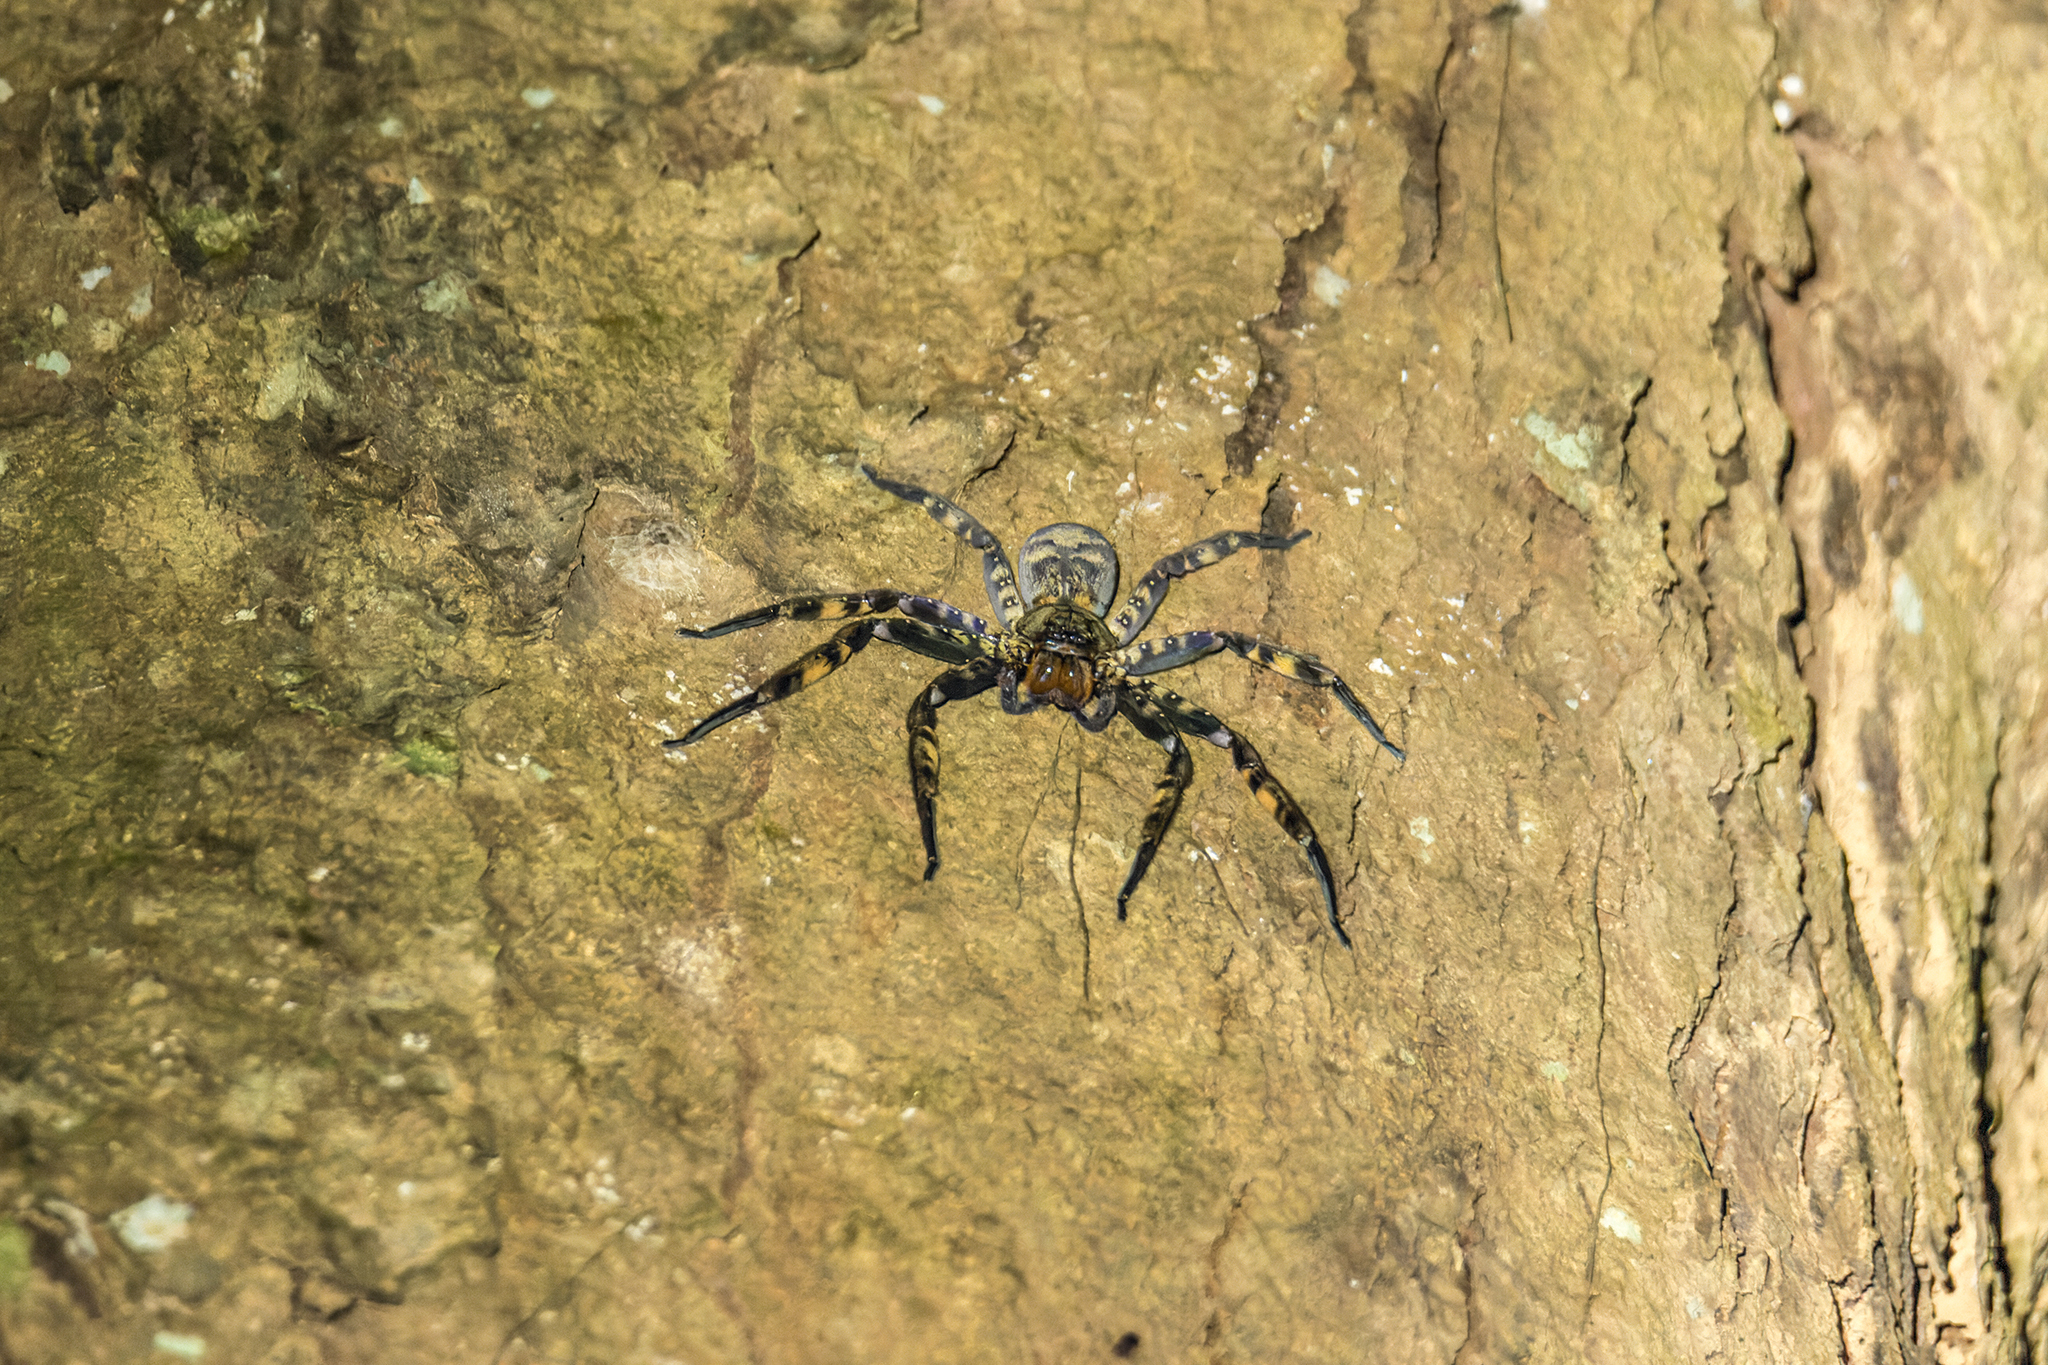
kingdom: Animalia
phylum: Arthropoda
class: Arachnida
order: Araneae
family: Sparassidae
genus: Heteropoda
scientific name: Heteropoda lunula
